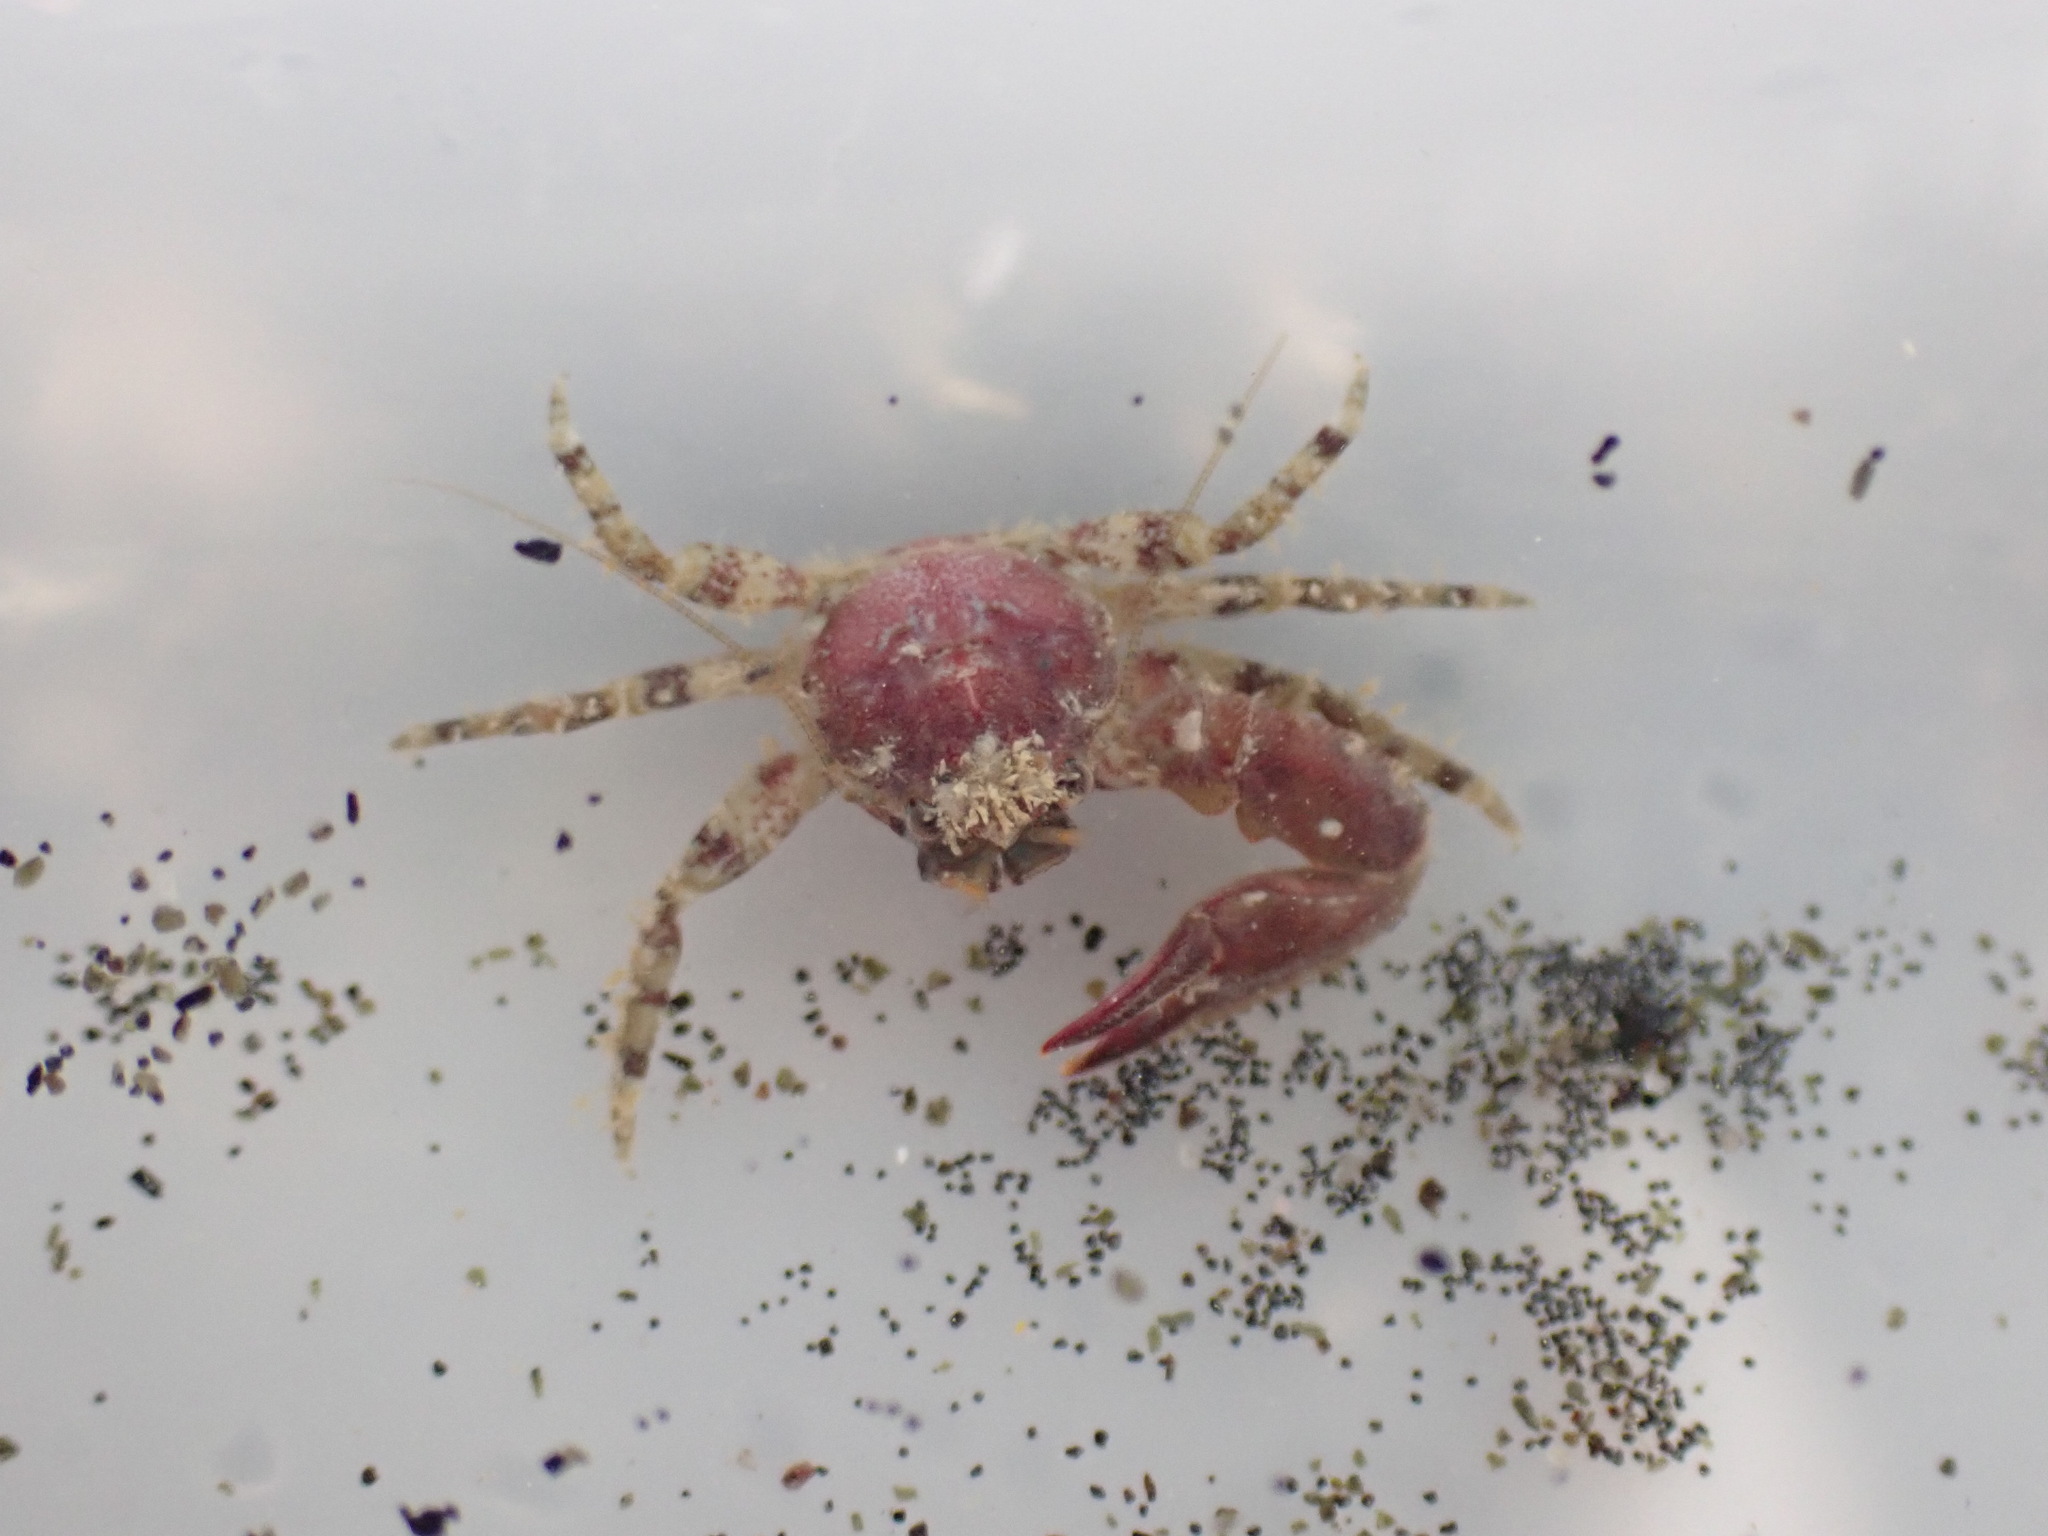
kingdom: Animalia
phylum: Arthropoda
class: Malacostraca
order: Decapoda
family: Porcellanidae
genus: Petrolisthes
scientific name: Petrolisthes novaezelandiae
